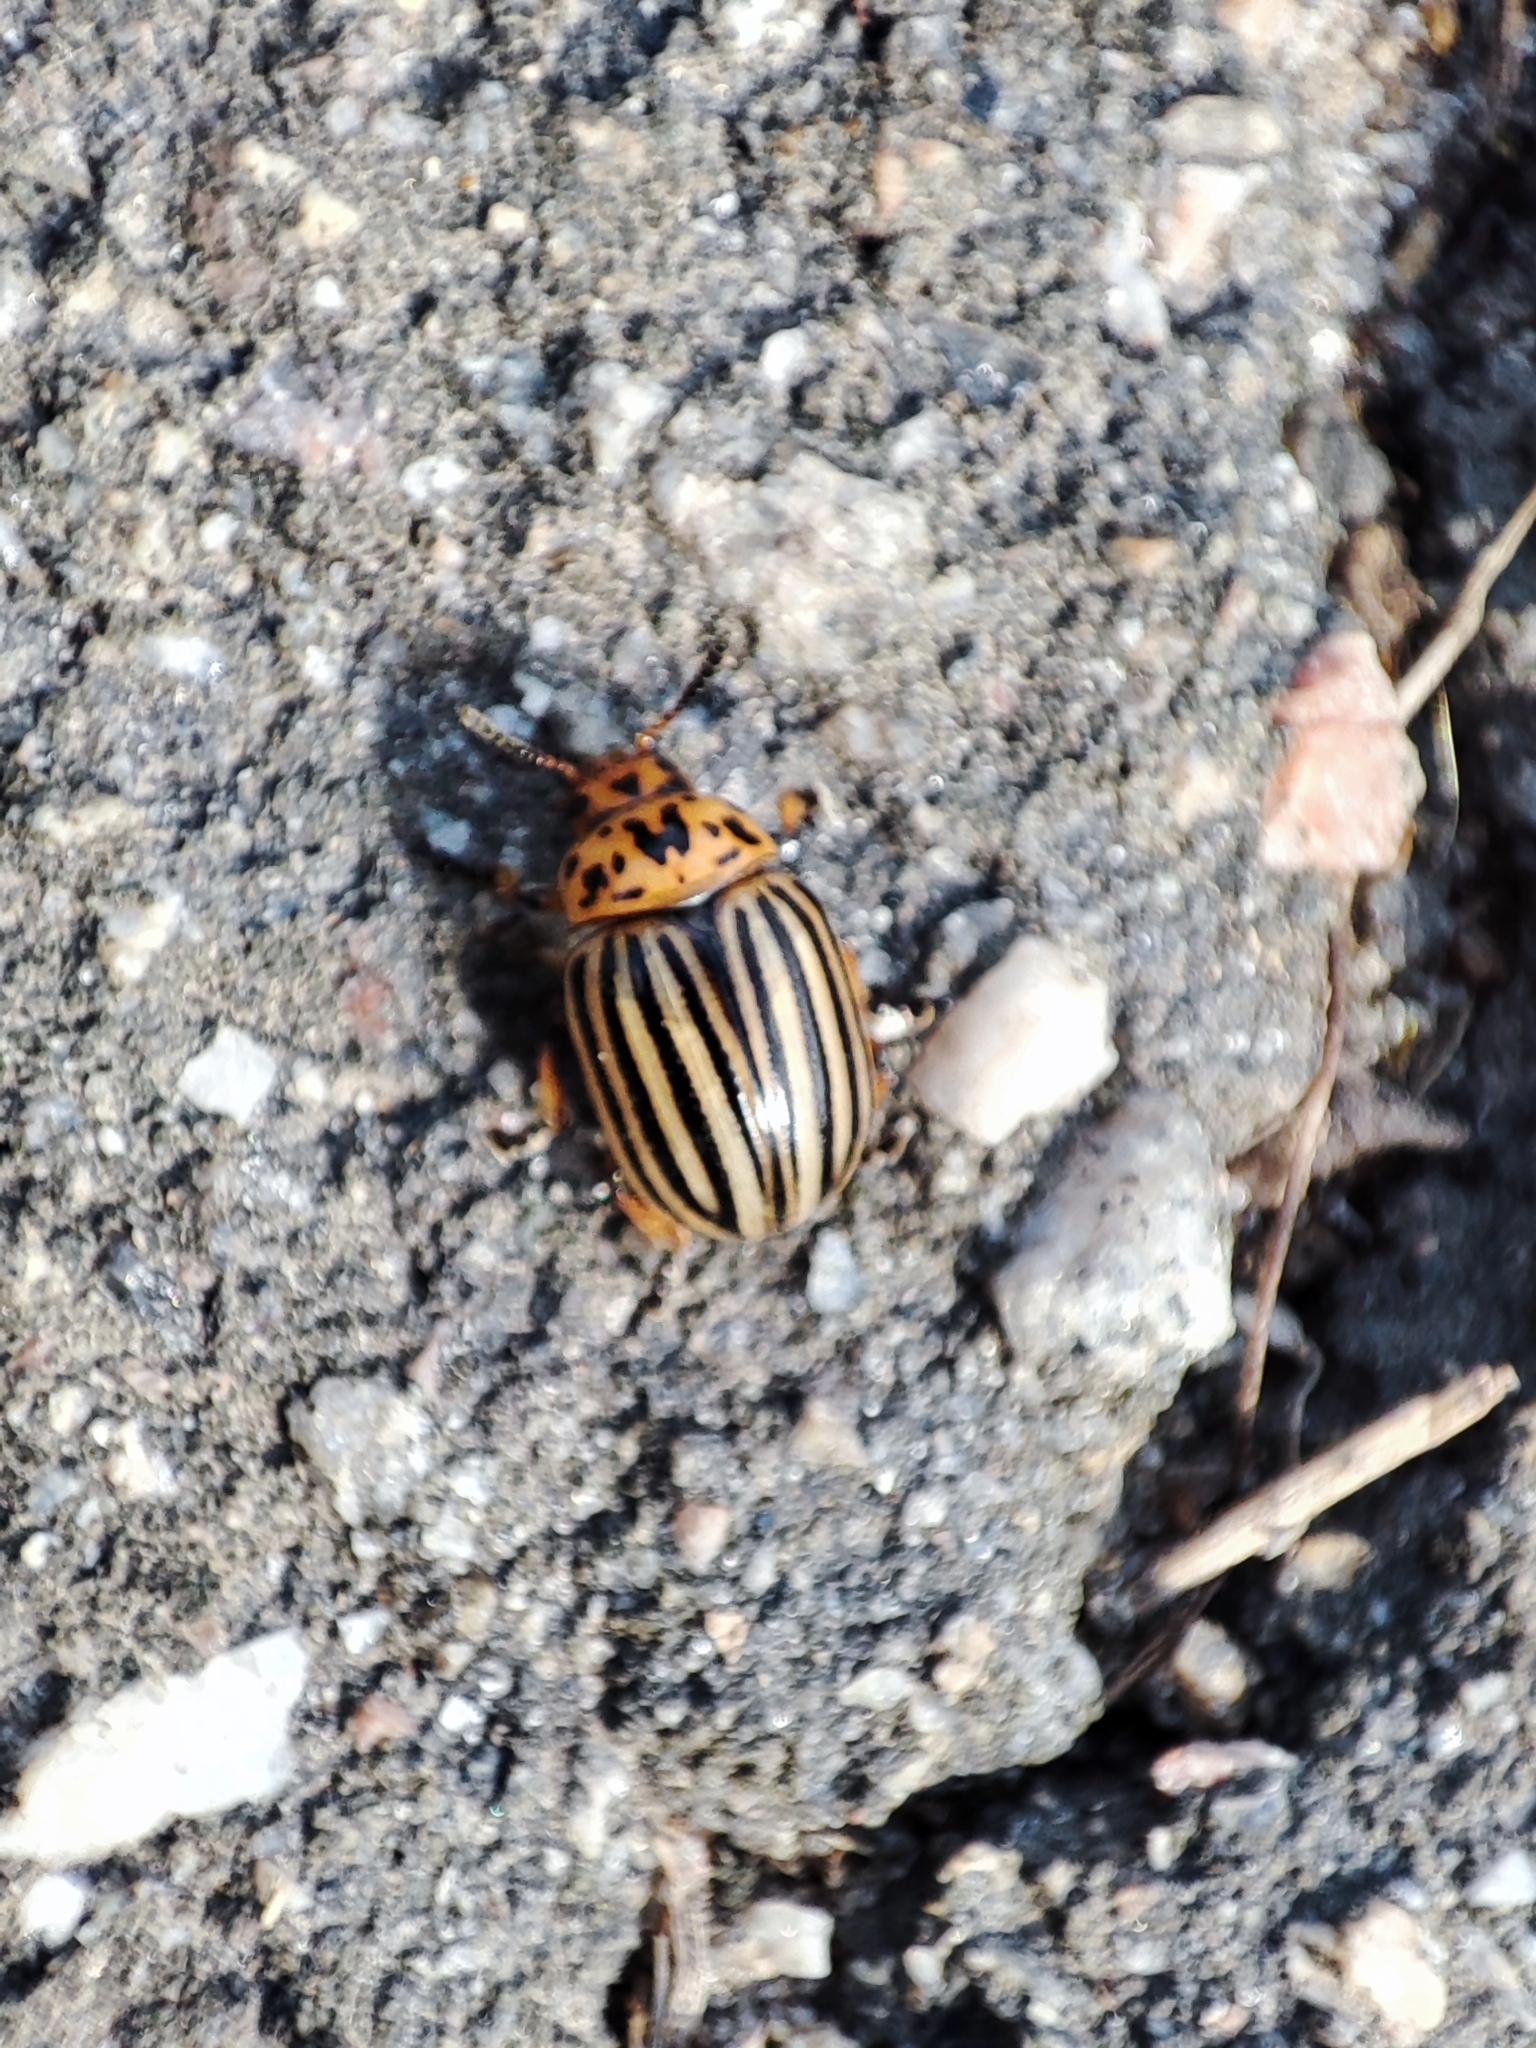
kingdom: Animalia
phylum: Arthropoda
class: Insecta
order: Coleoptera
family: Chrysomelidae
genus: Leptinotarsa
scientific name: Leptinotarsa decemlineata
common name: Colorado potato beetle
